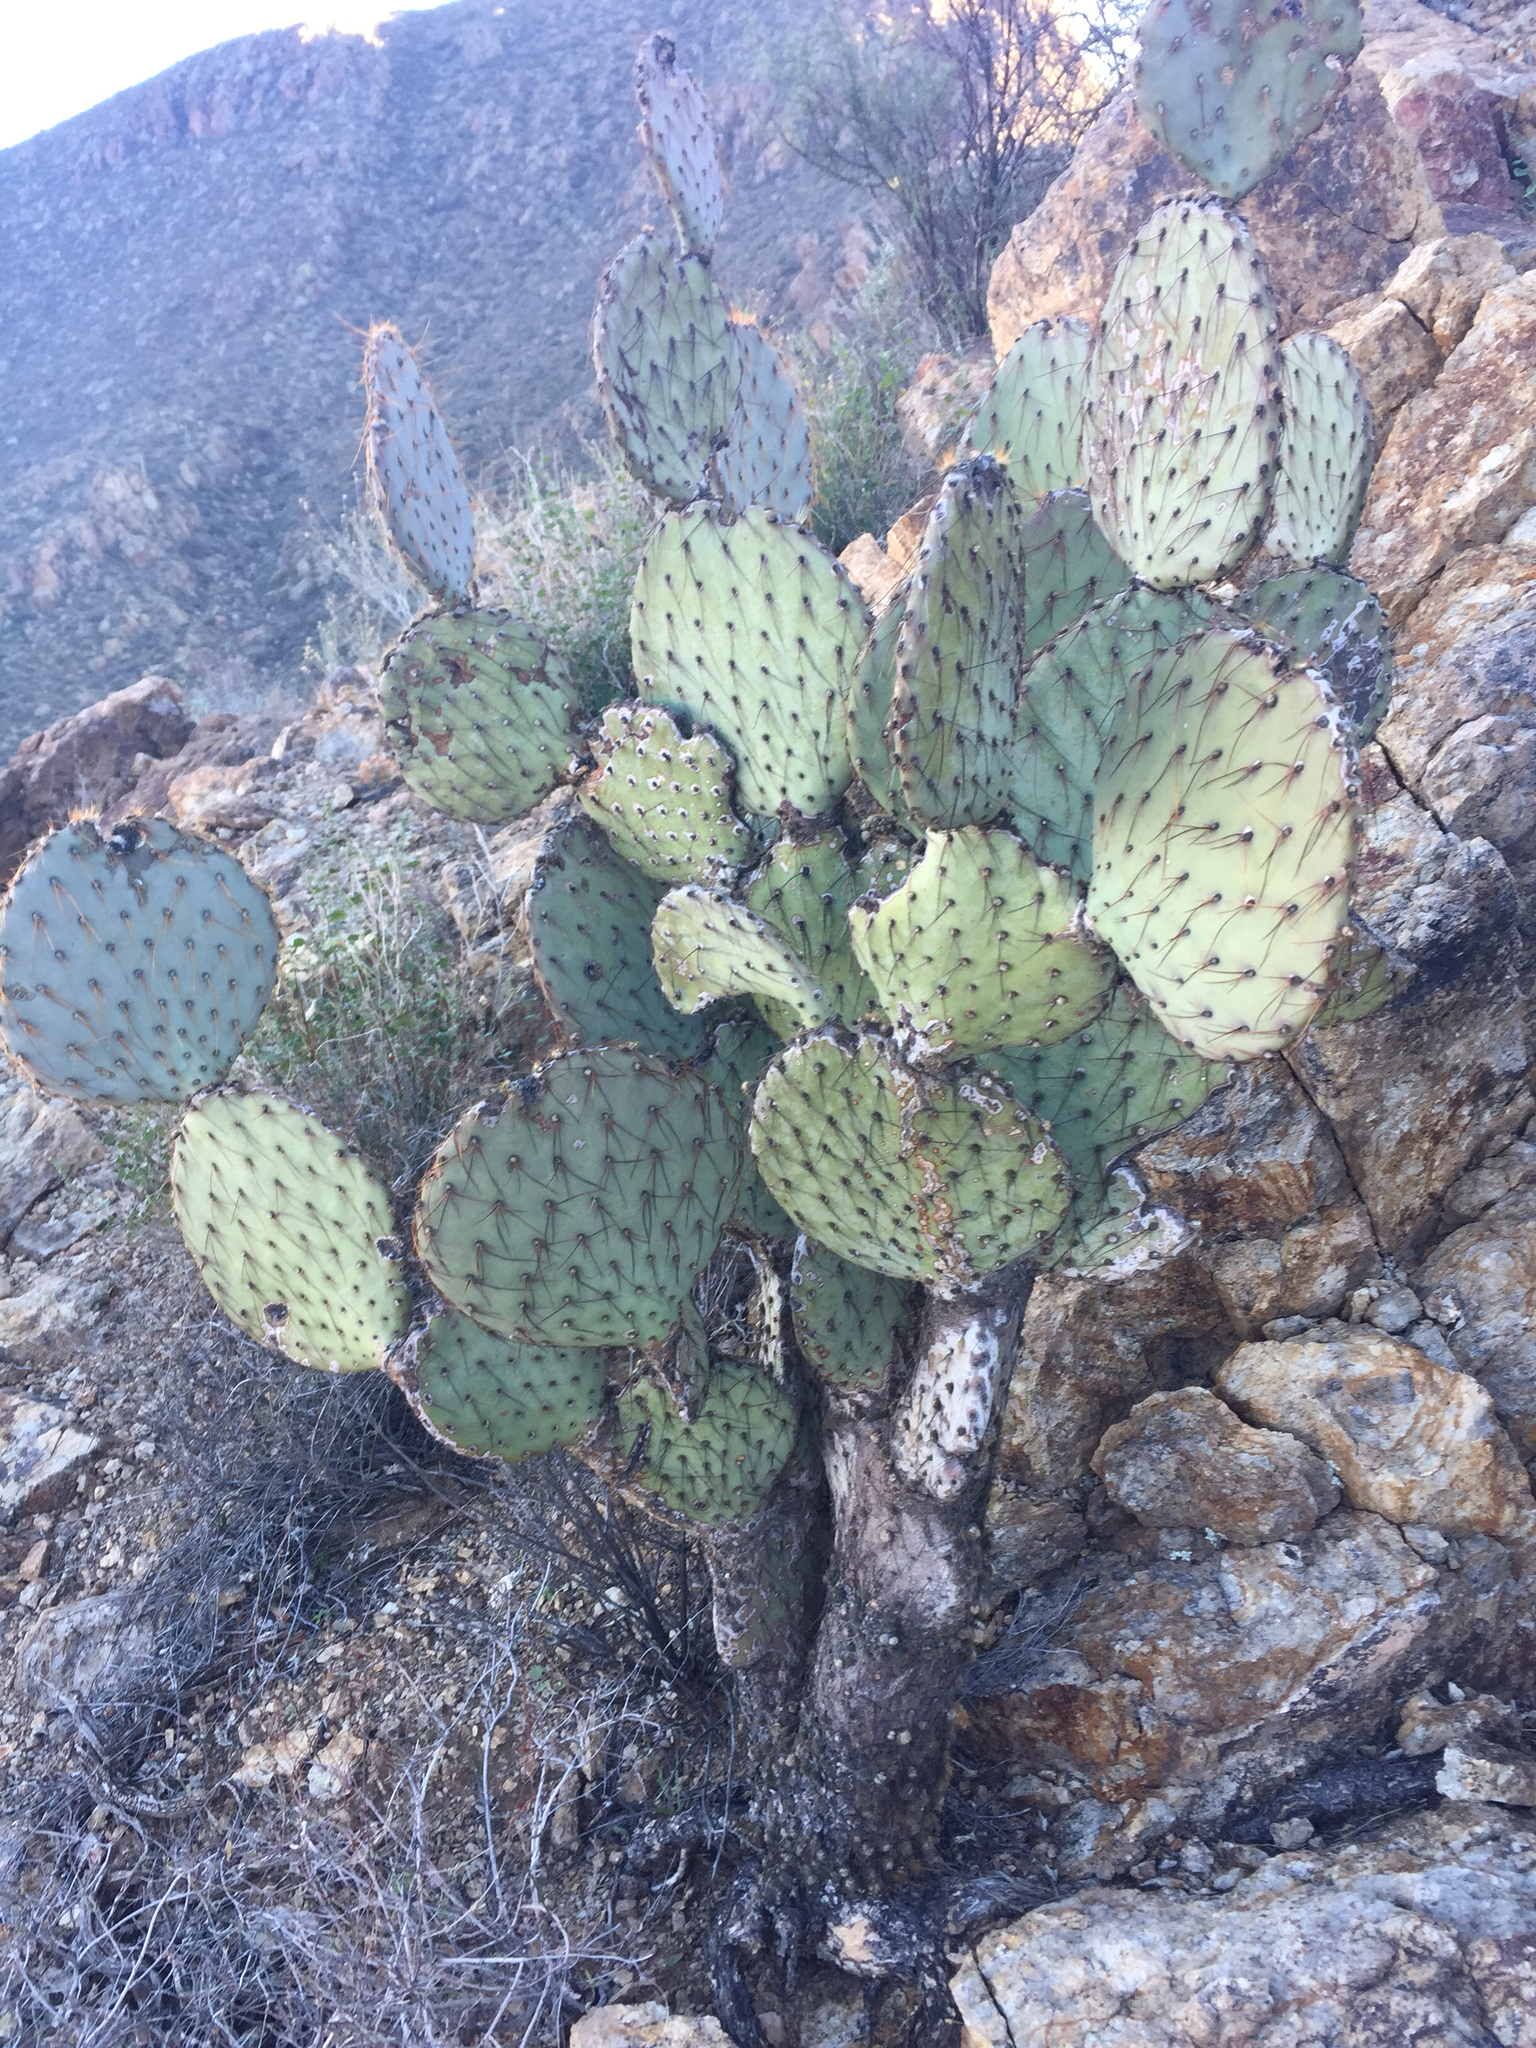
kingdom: Plantae
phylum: Tracheophyta
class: Magnoliopsida
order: Caryophyllales
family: Cactaceae
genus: Opuntia
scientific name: Opuntia chlorotica
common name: Dollar-joint prickly-pear
